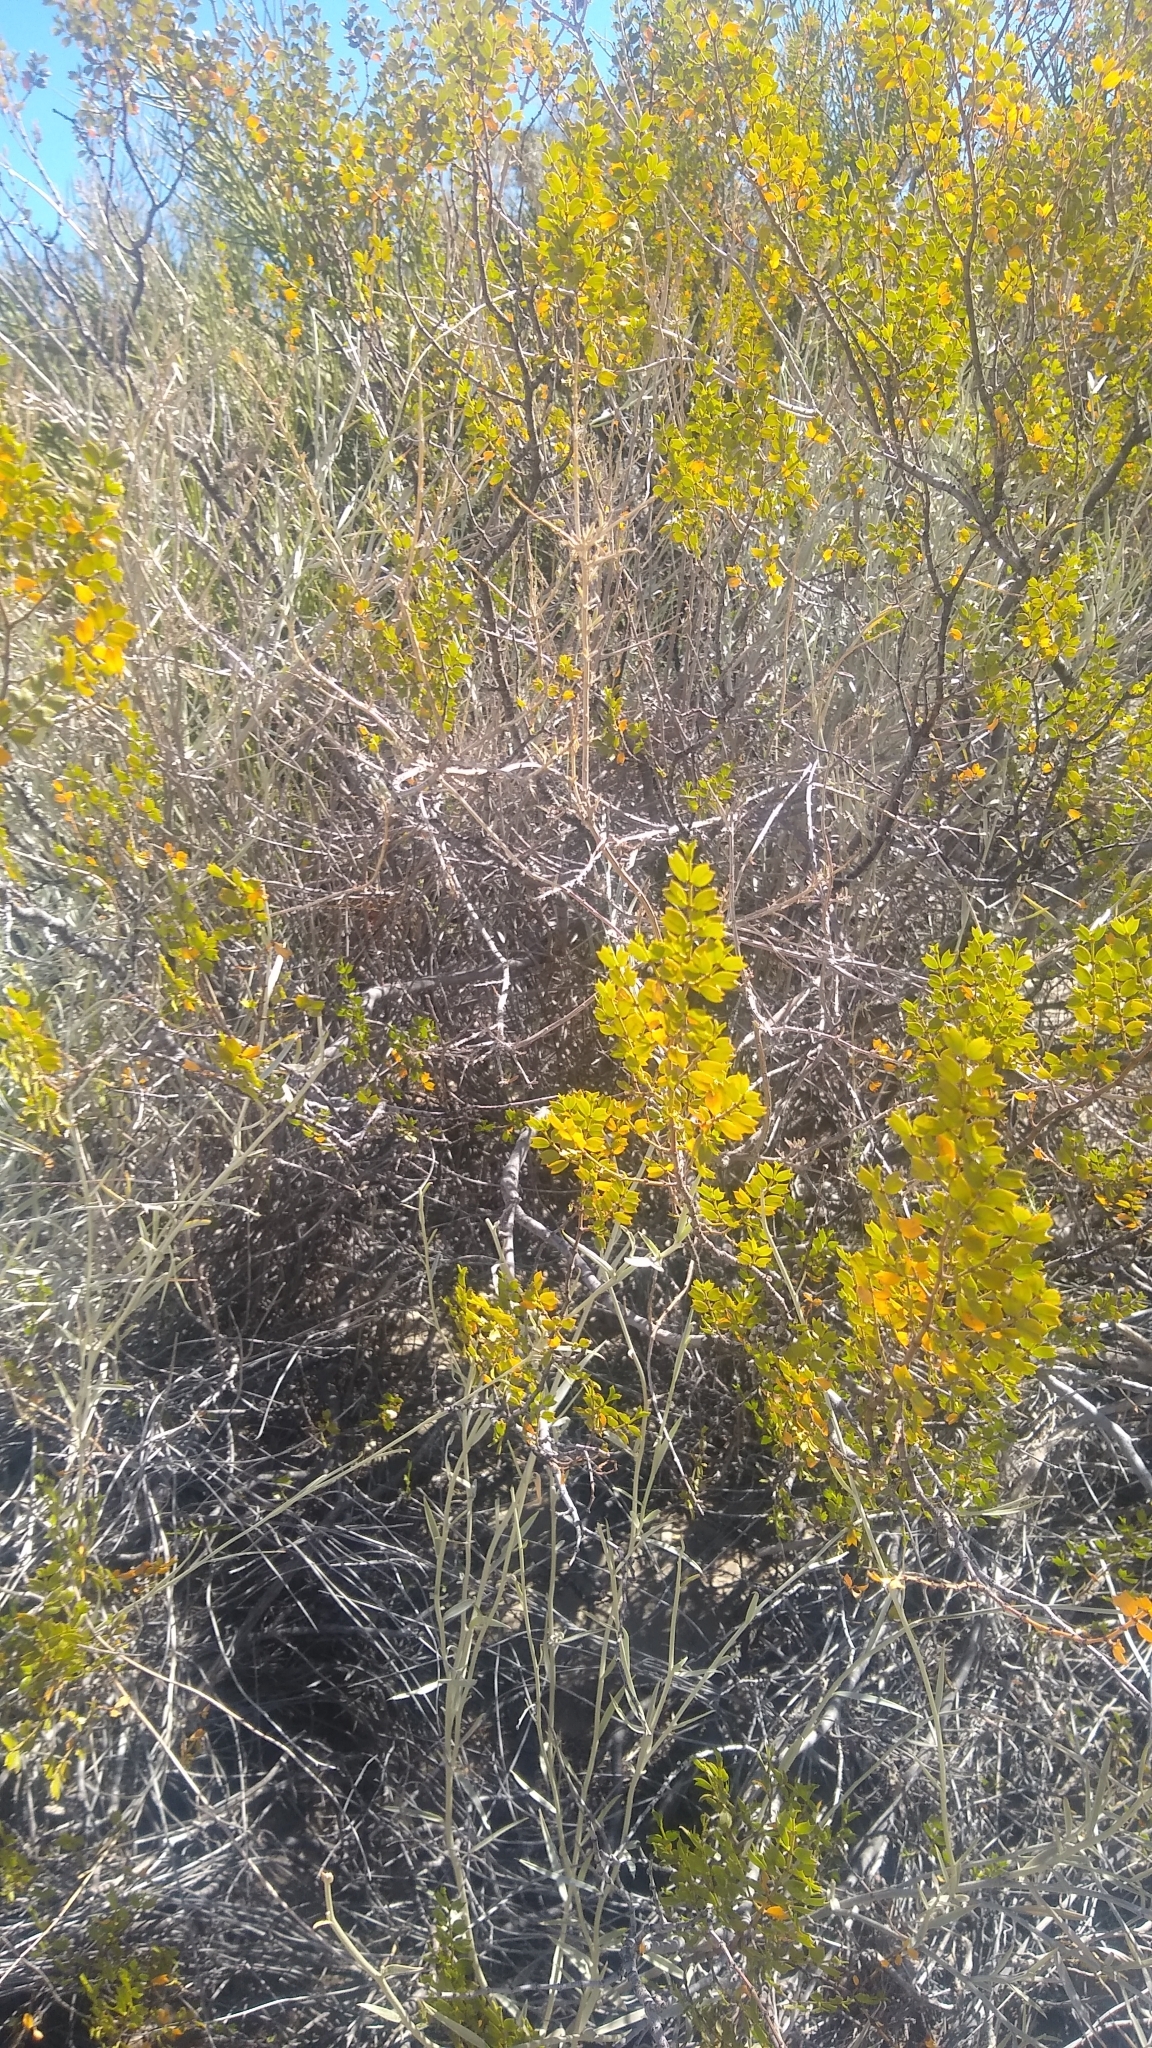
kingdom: Plantae
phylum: Tracheophyta
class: Magnoliopsida
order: Zygophyllales
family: Zygophyllaceae
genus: Larrea
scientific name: Larrea cuneifolia
